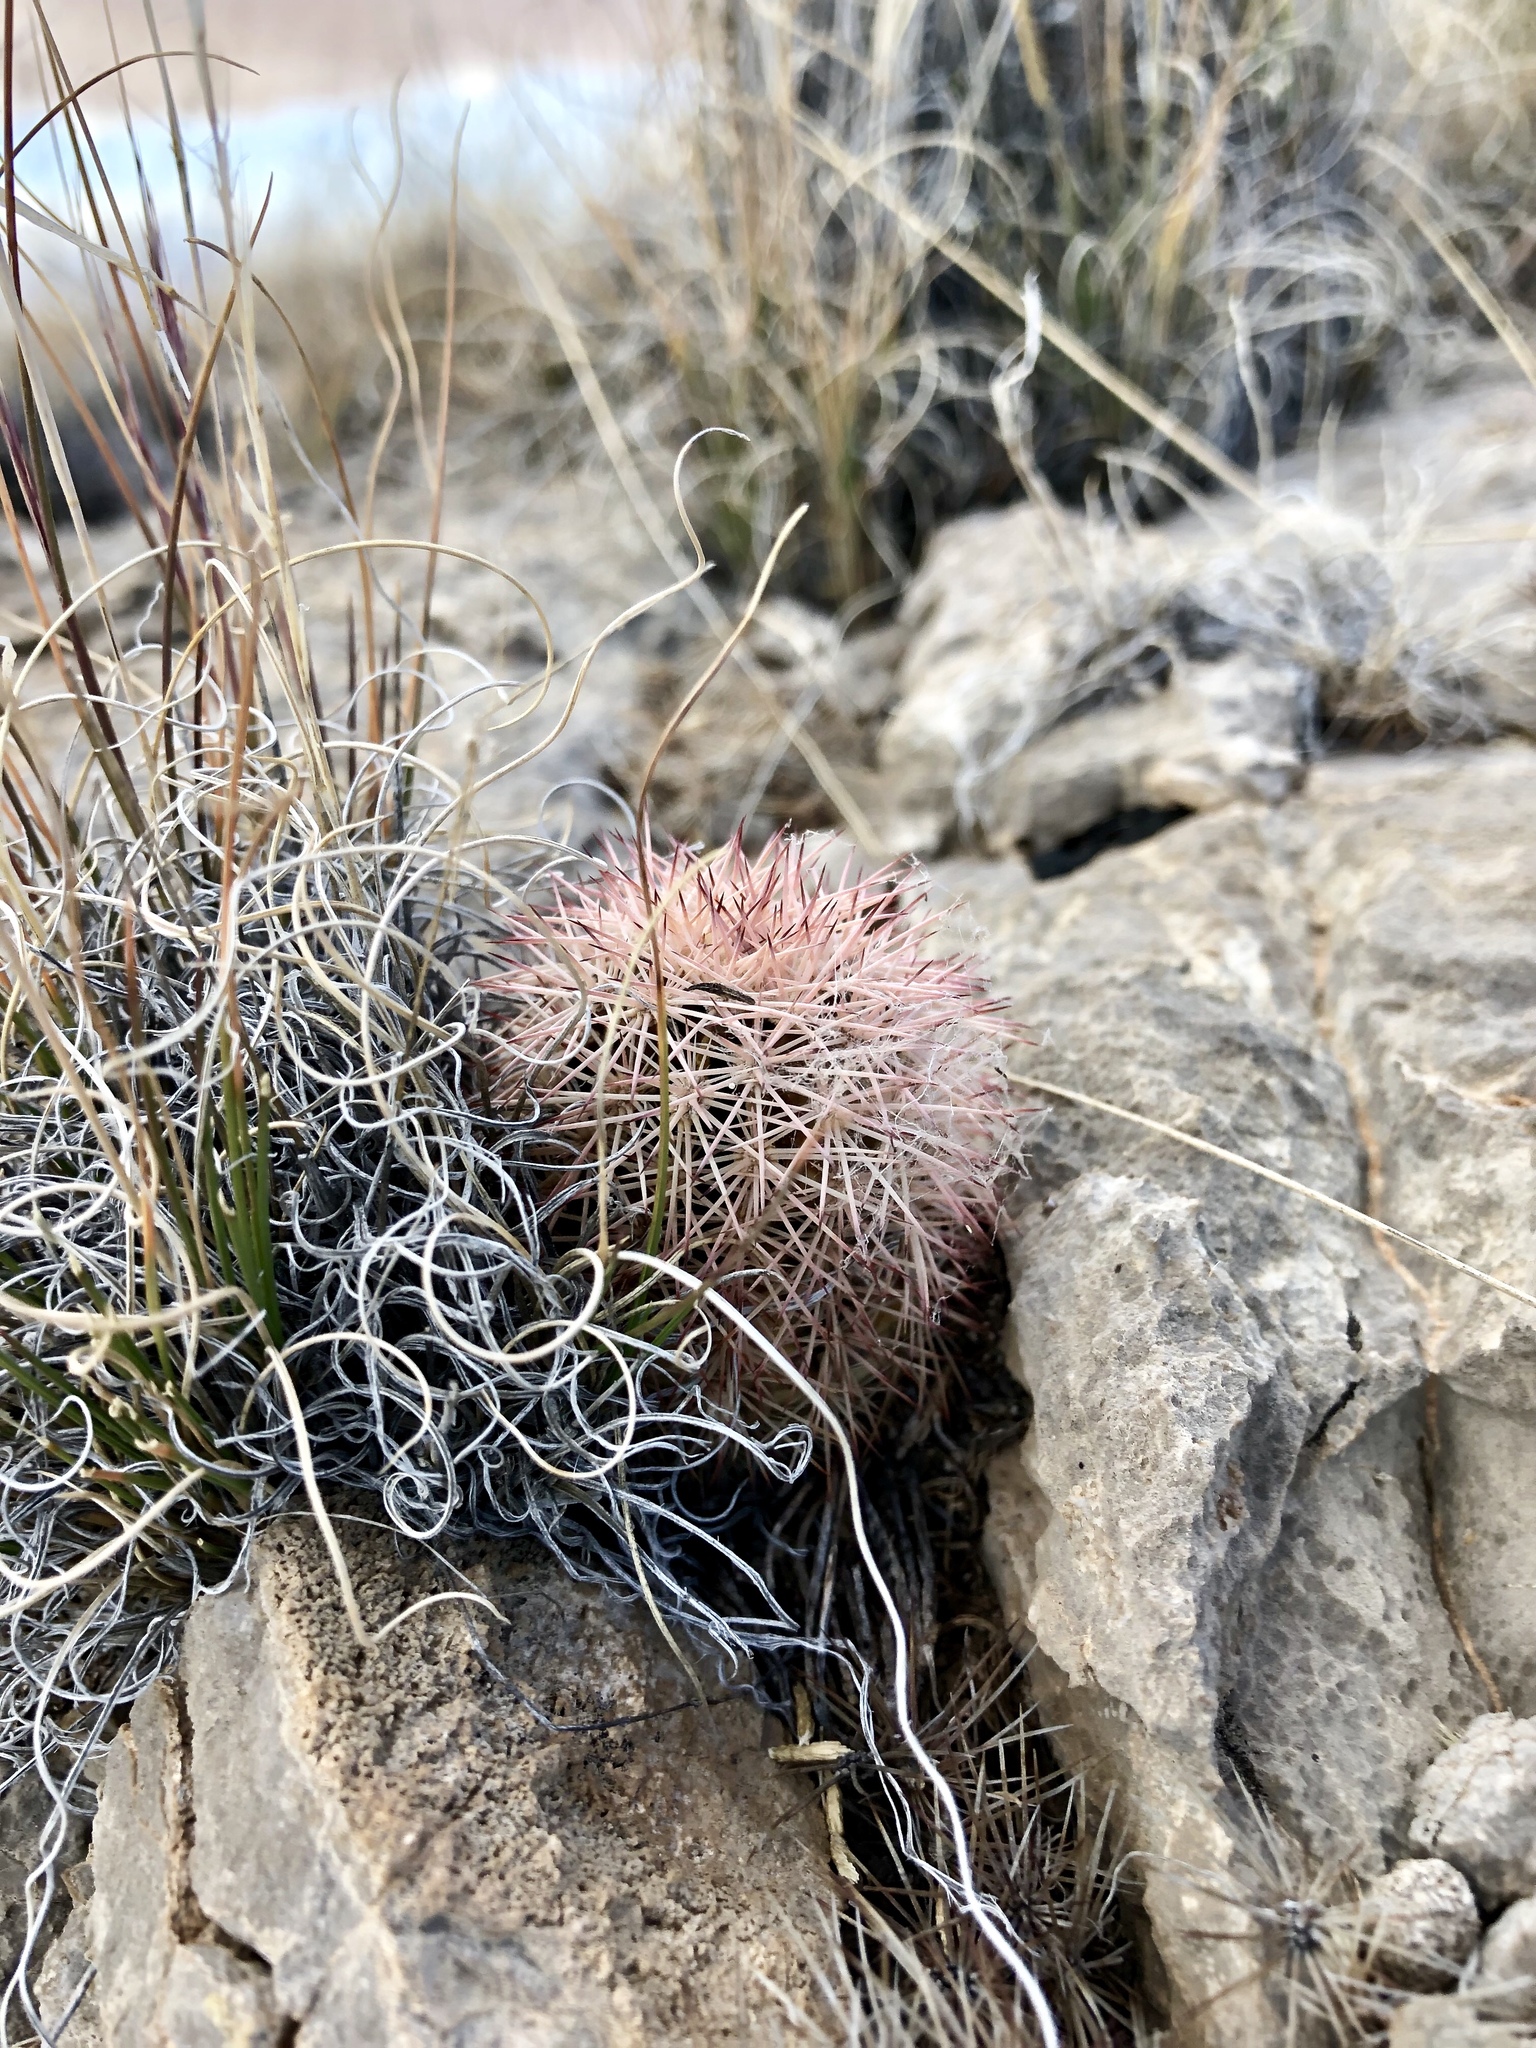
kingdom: Plantae
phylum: Tracheophyta
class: Magnoliopsida
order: Caryophyllales
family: Cactaceae
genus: Echinocereus
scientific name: Echinocereus dasyacanthus
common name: Spiny hedgehog cactus
